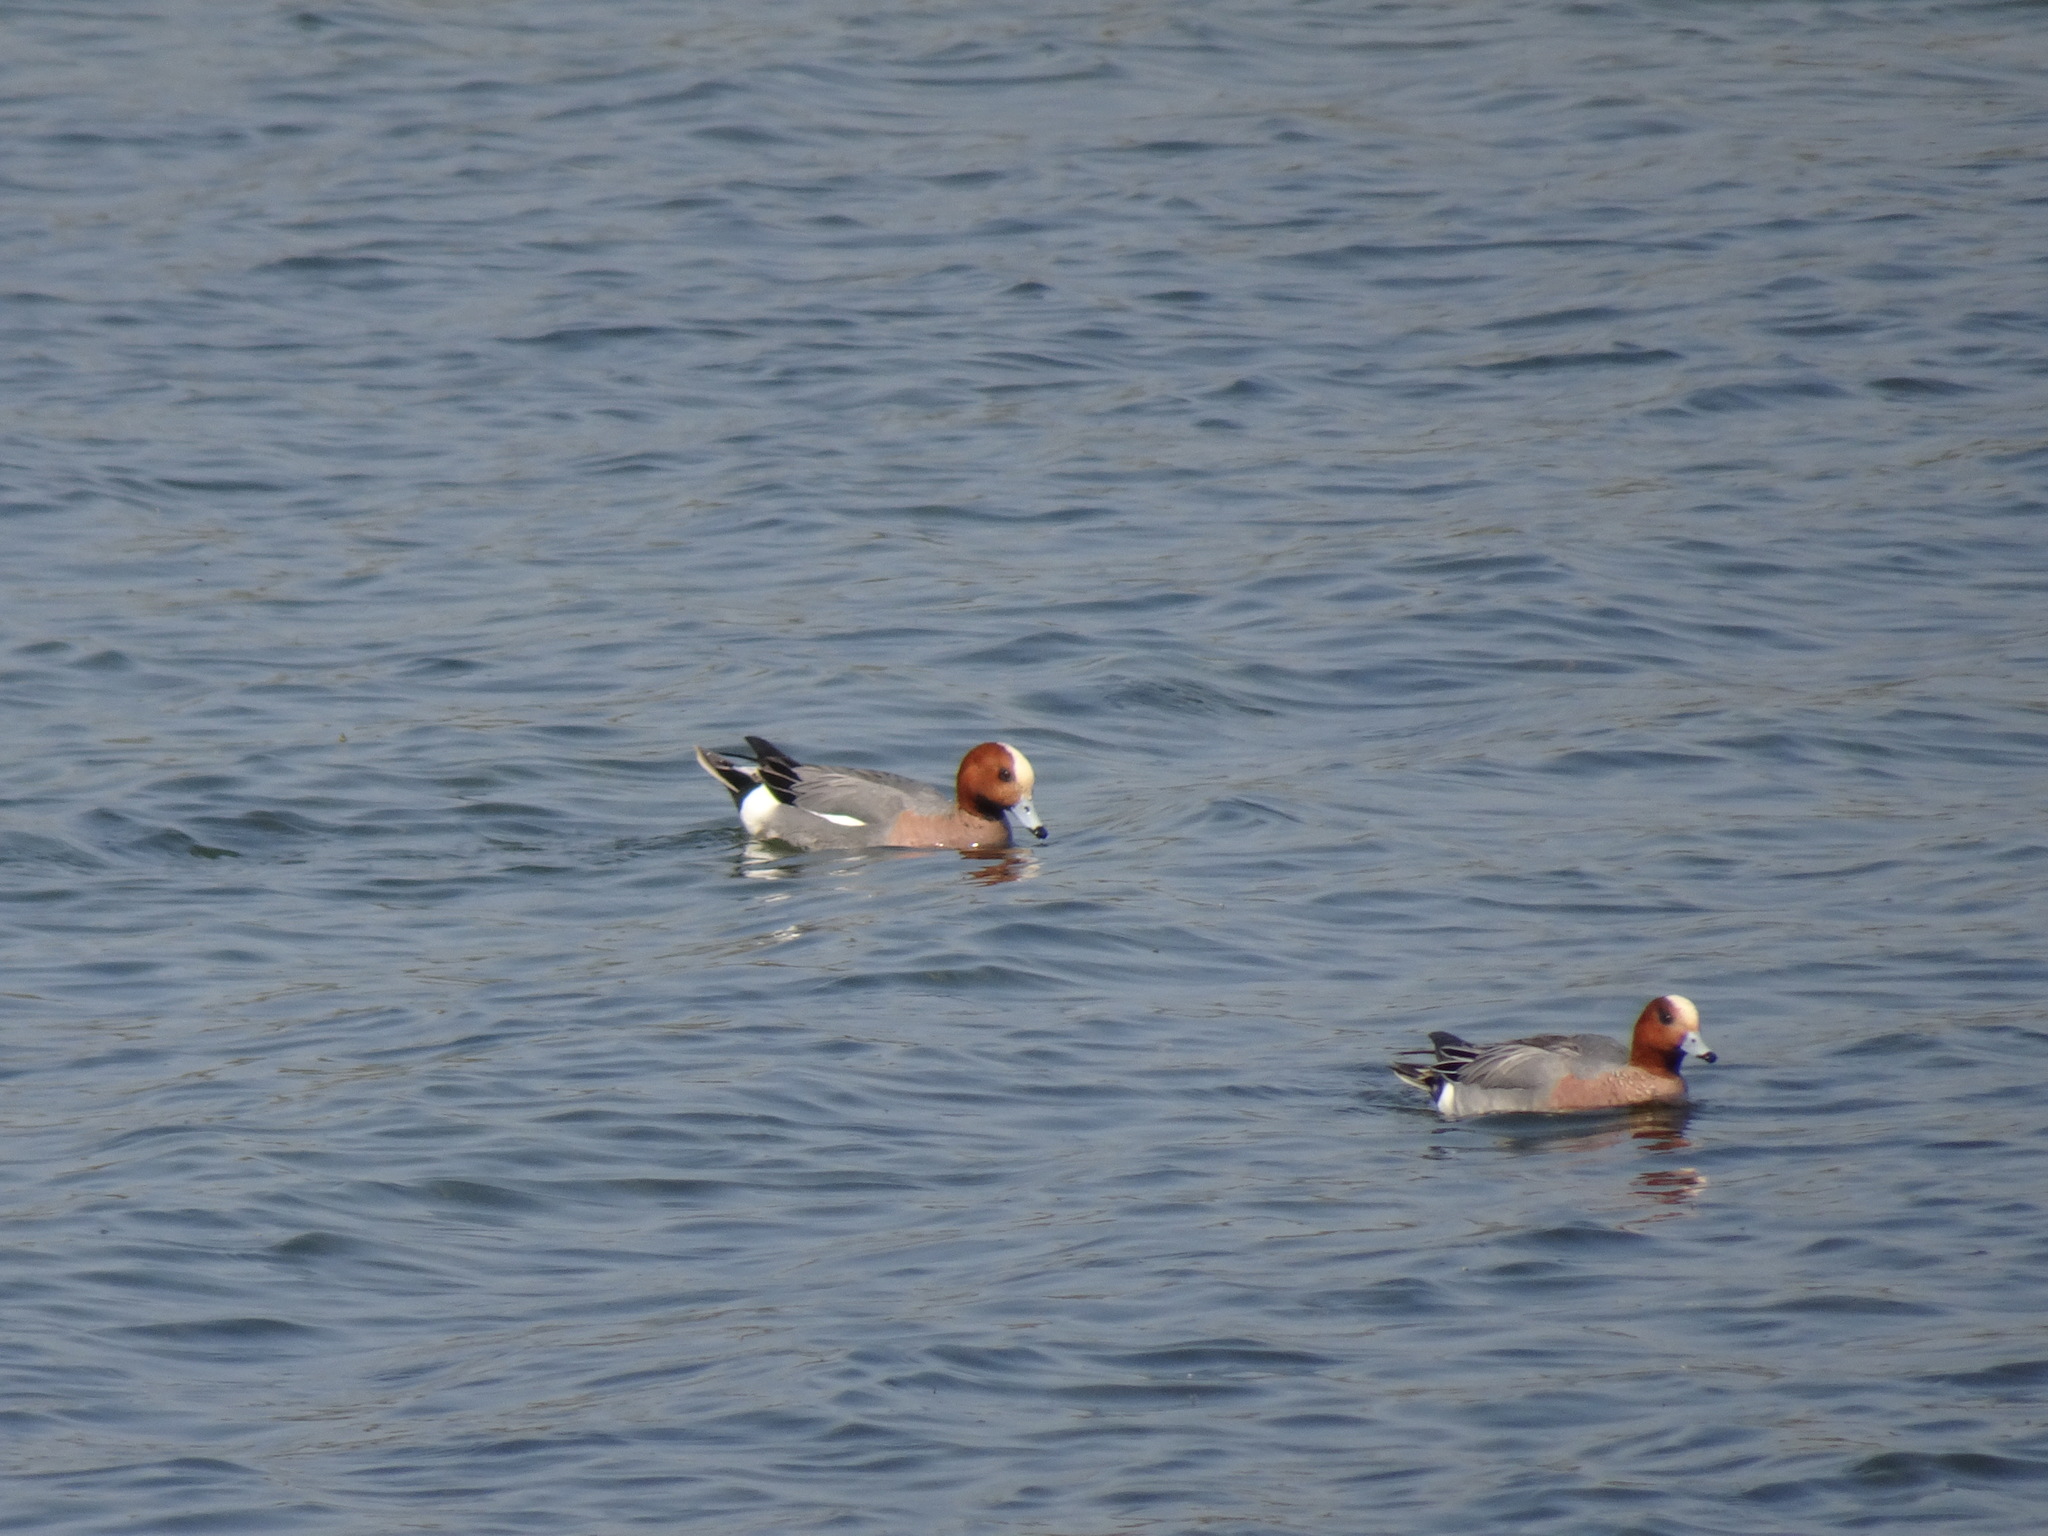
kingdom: Animalia
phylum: Chordata
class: Aves
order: Anseriformes
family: Anatidae
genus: Mareca
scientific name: Mareca penelope
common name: Eurasian wigeon
